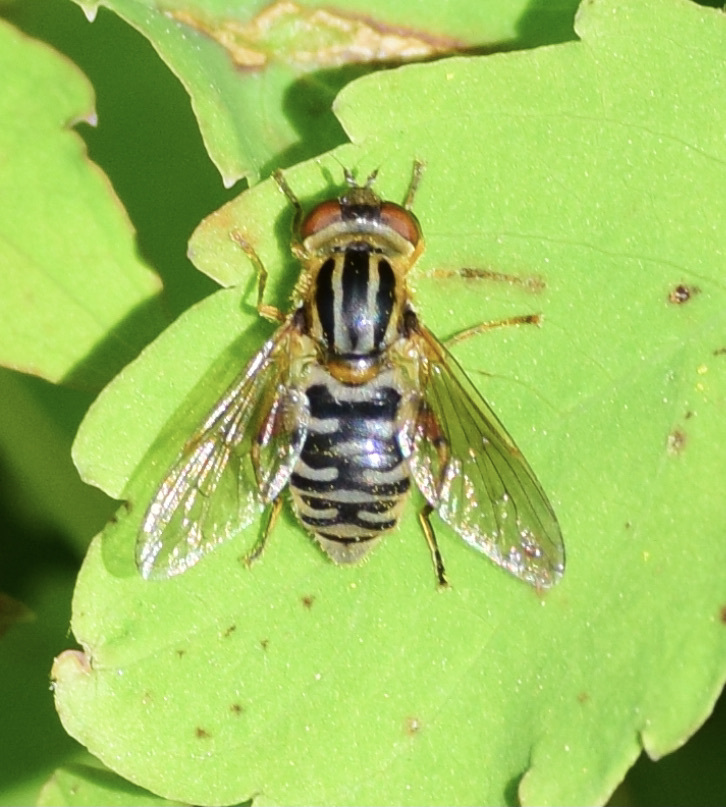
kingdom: Animalia
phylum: Arthropoda
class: Insecta
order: Diptera
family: Syrphidae
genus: Eurimyia
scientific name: Eurimyia stipatus
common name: Long-nosed swamp fly
